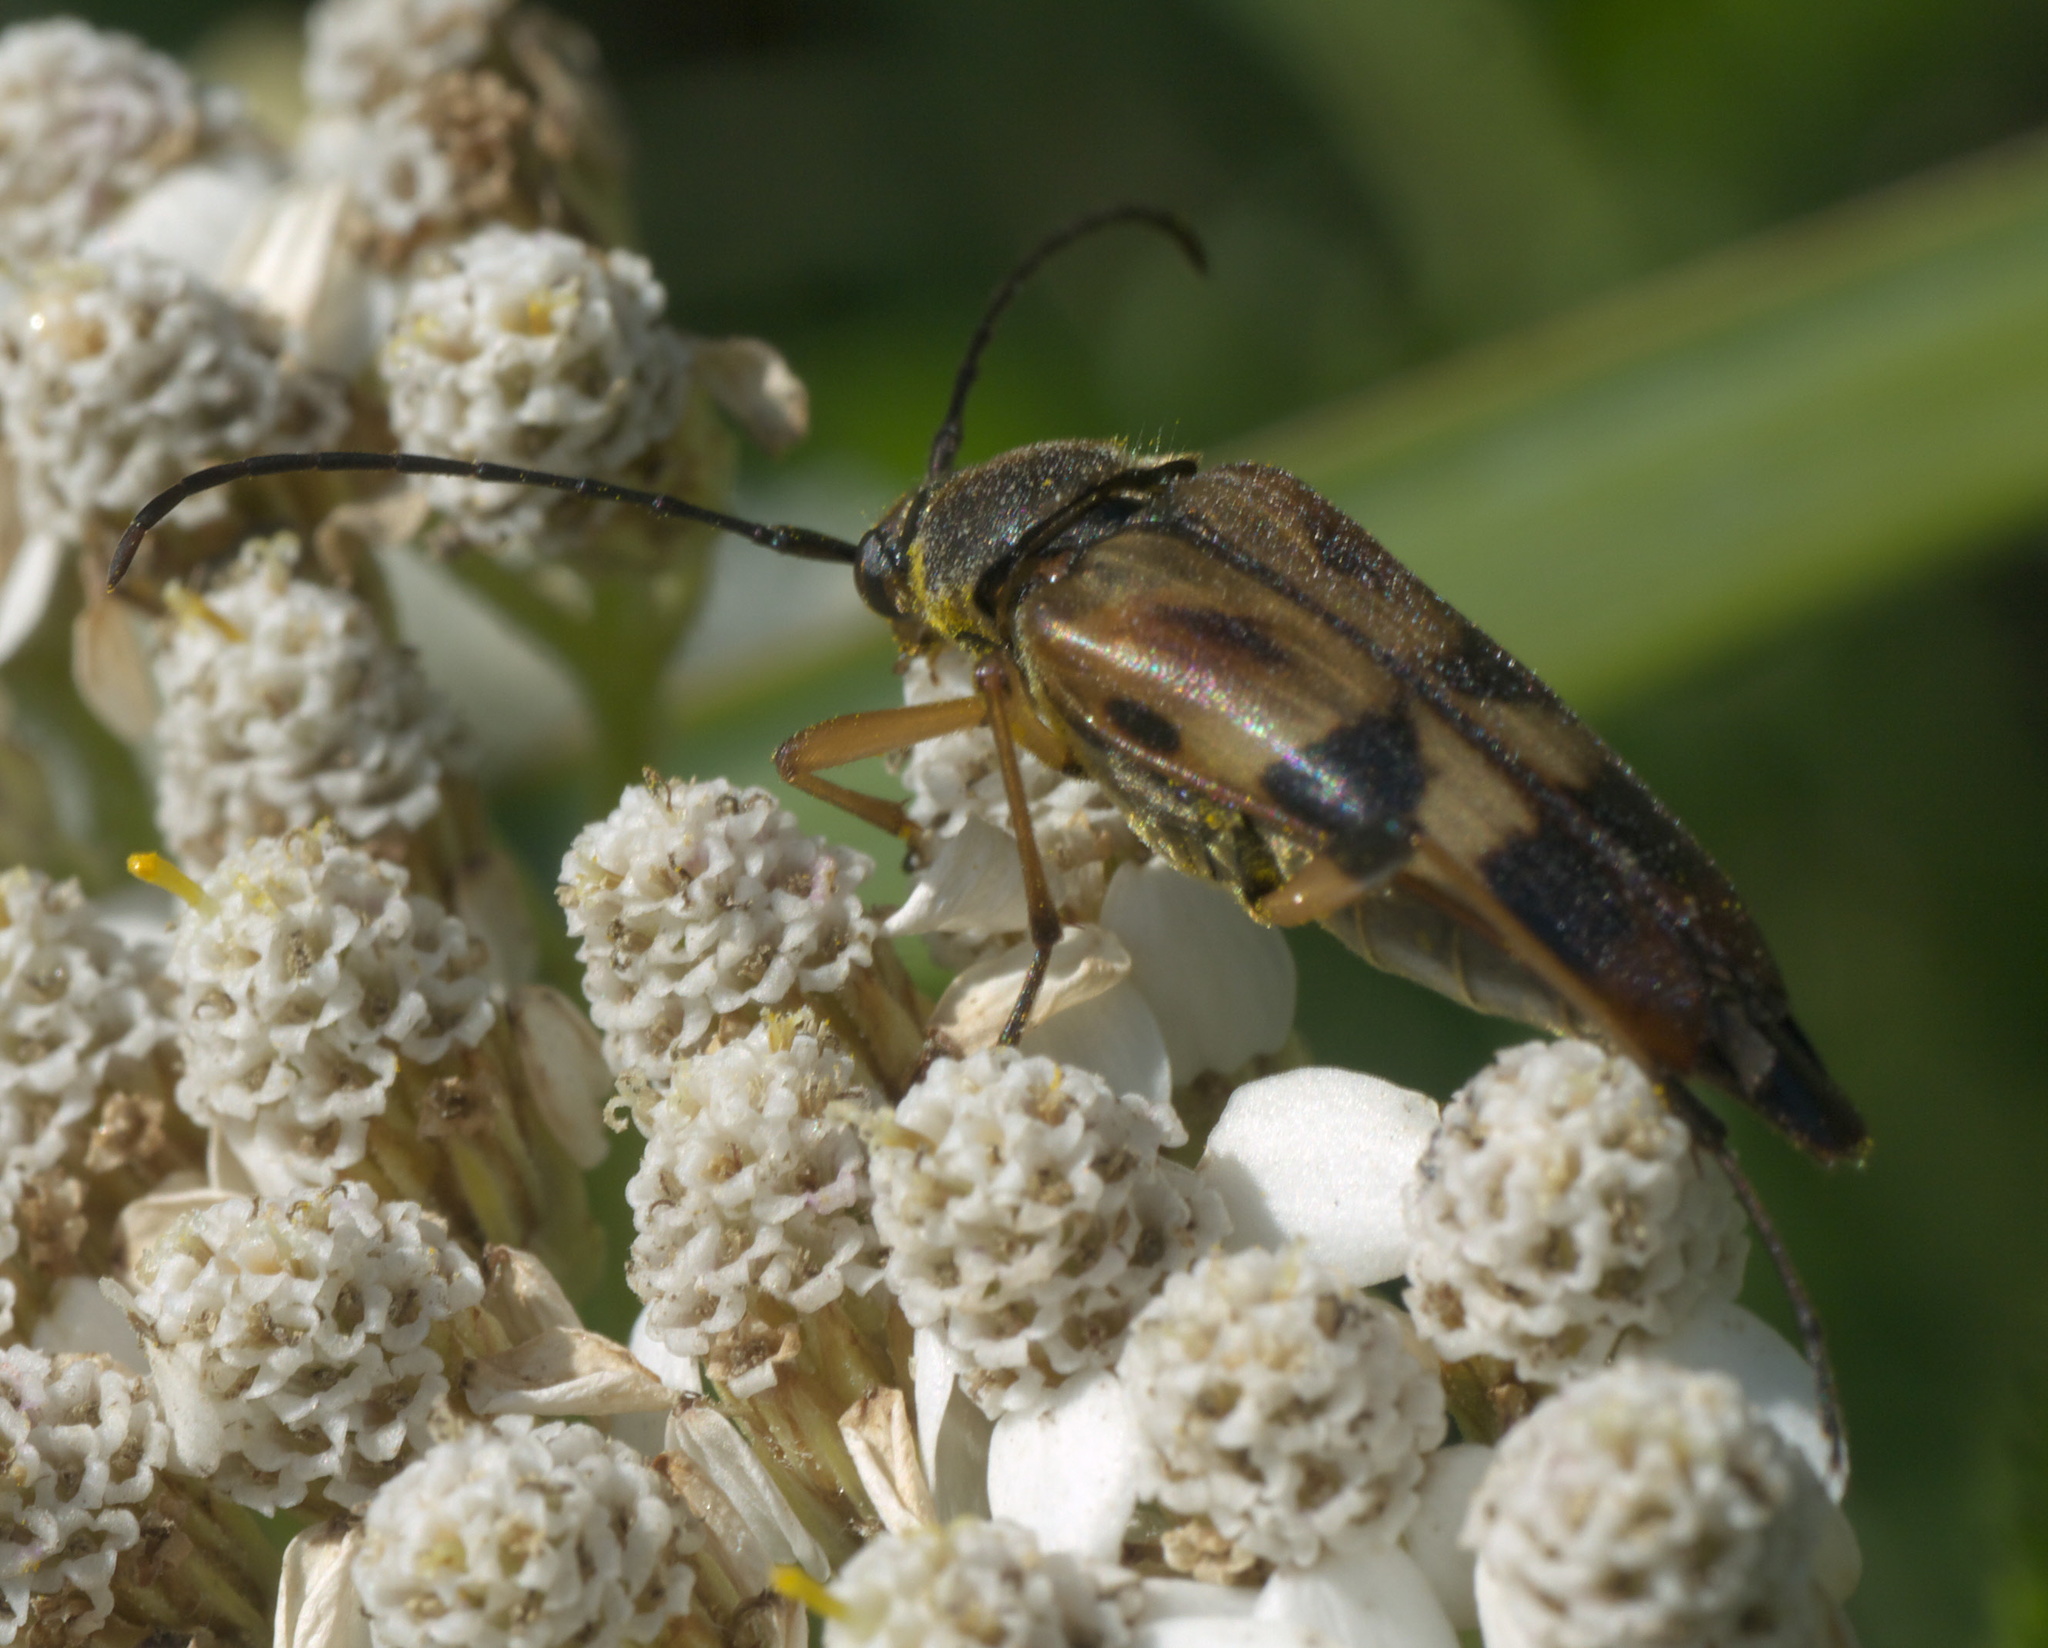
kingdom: Animalia
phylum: Arthropoda
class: Insecta
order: Coleoptera
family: Cerambycidae
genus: Etorofus
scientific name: Etorofus obliteratus
